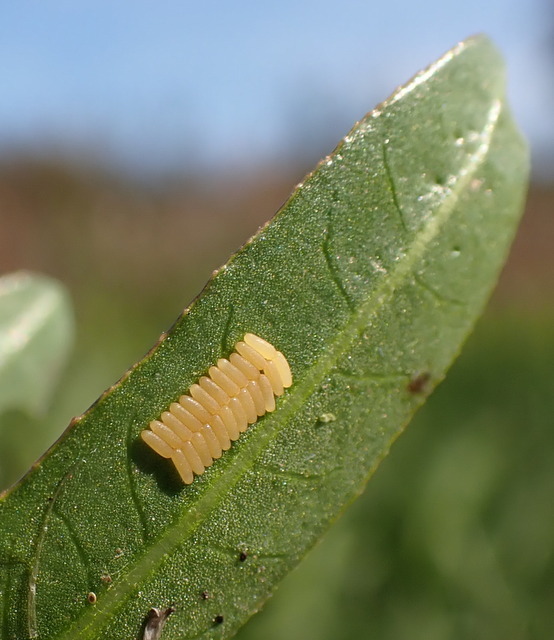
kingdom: Animalia
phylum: Arthropoda
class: Insecta
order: Coleoptera
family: Chrysomelidae
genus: Agasicles
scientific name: Agasicles hygrophila
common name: Alligatorweed flea beetle
